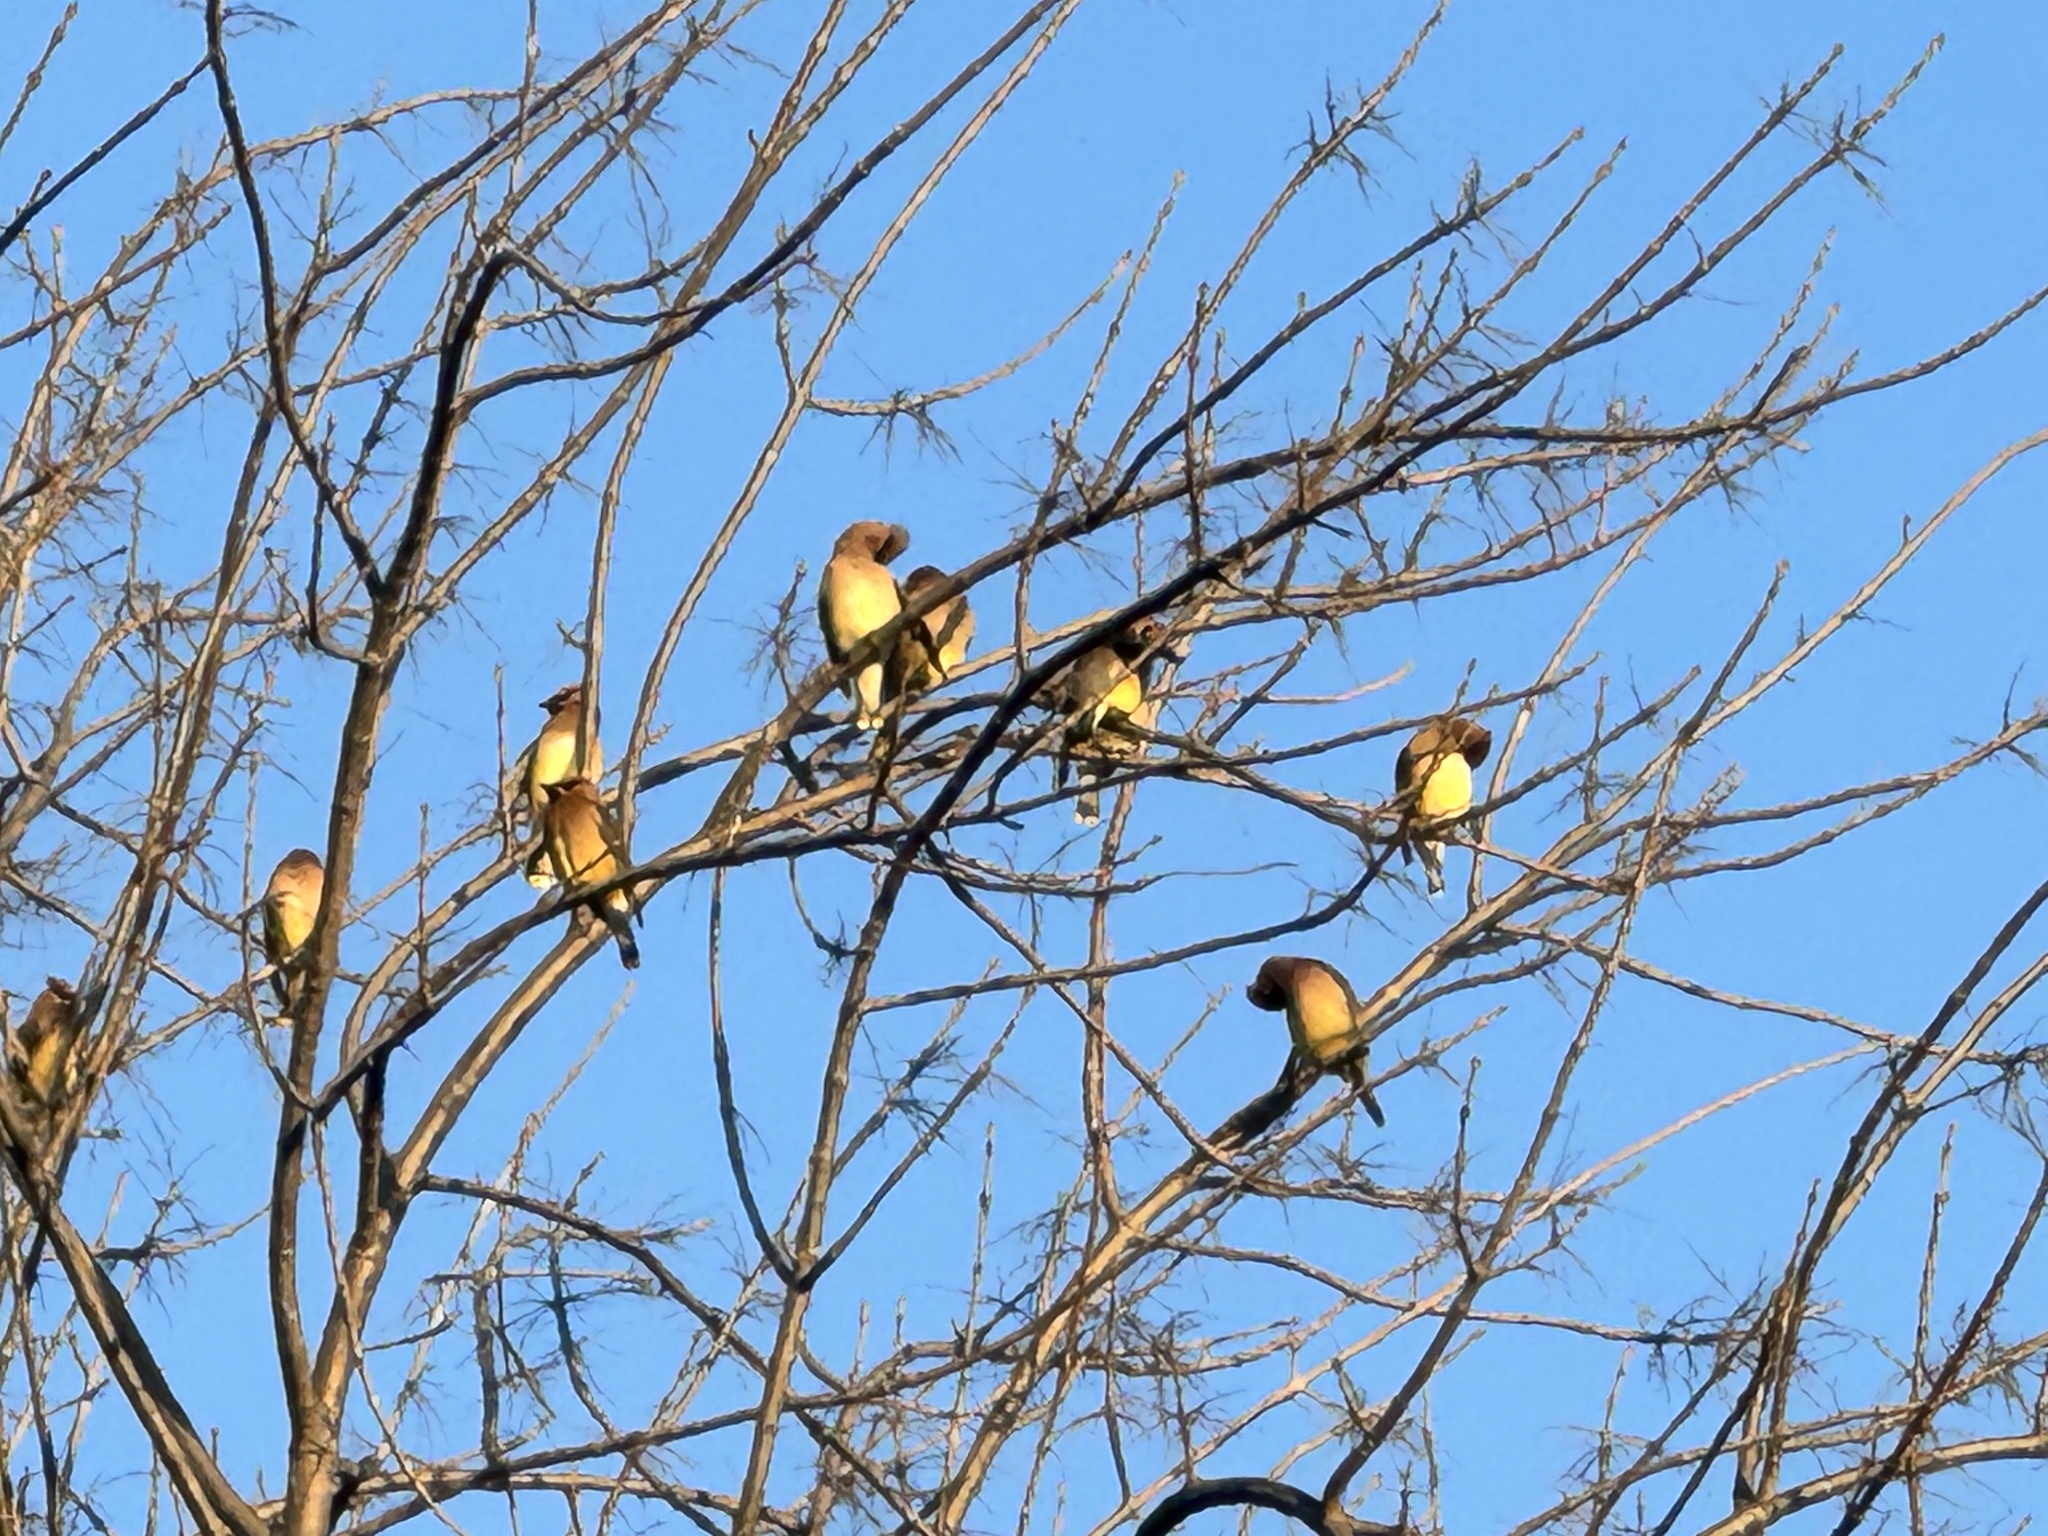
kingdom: Animalia
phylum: Chordata
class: Aves
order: Passeriformes
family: Bombycillidae
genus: Bombycilla
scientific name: Bombycilla cedrorum
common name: Cedar waxwing
